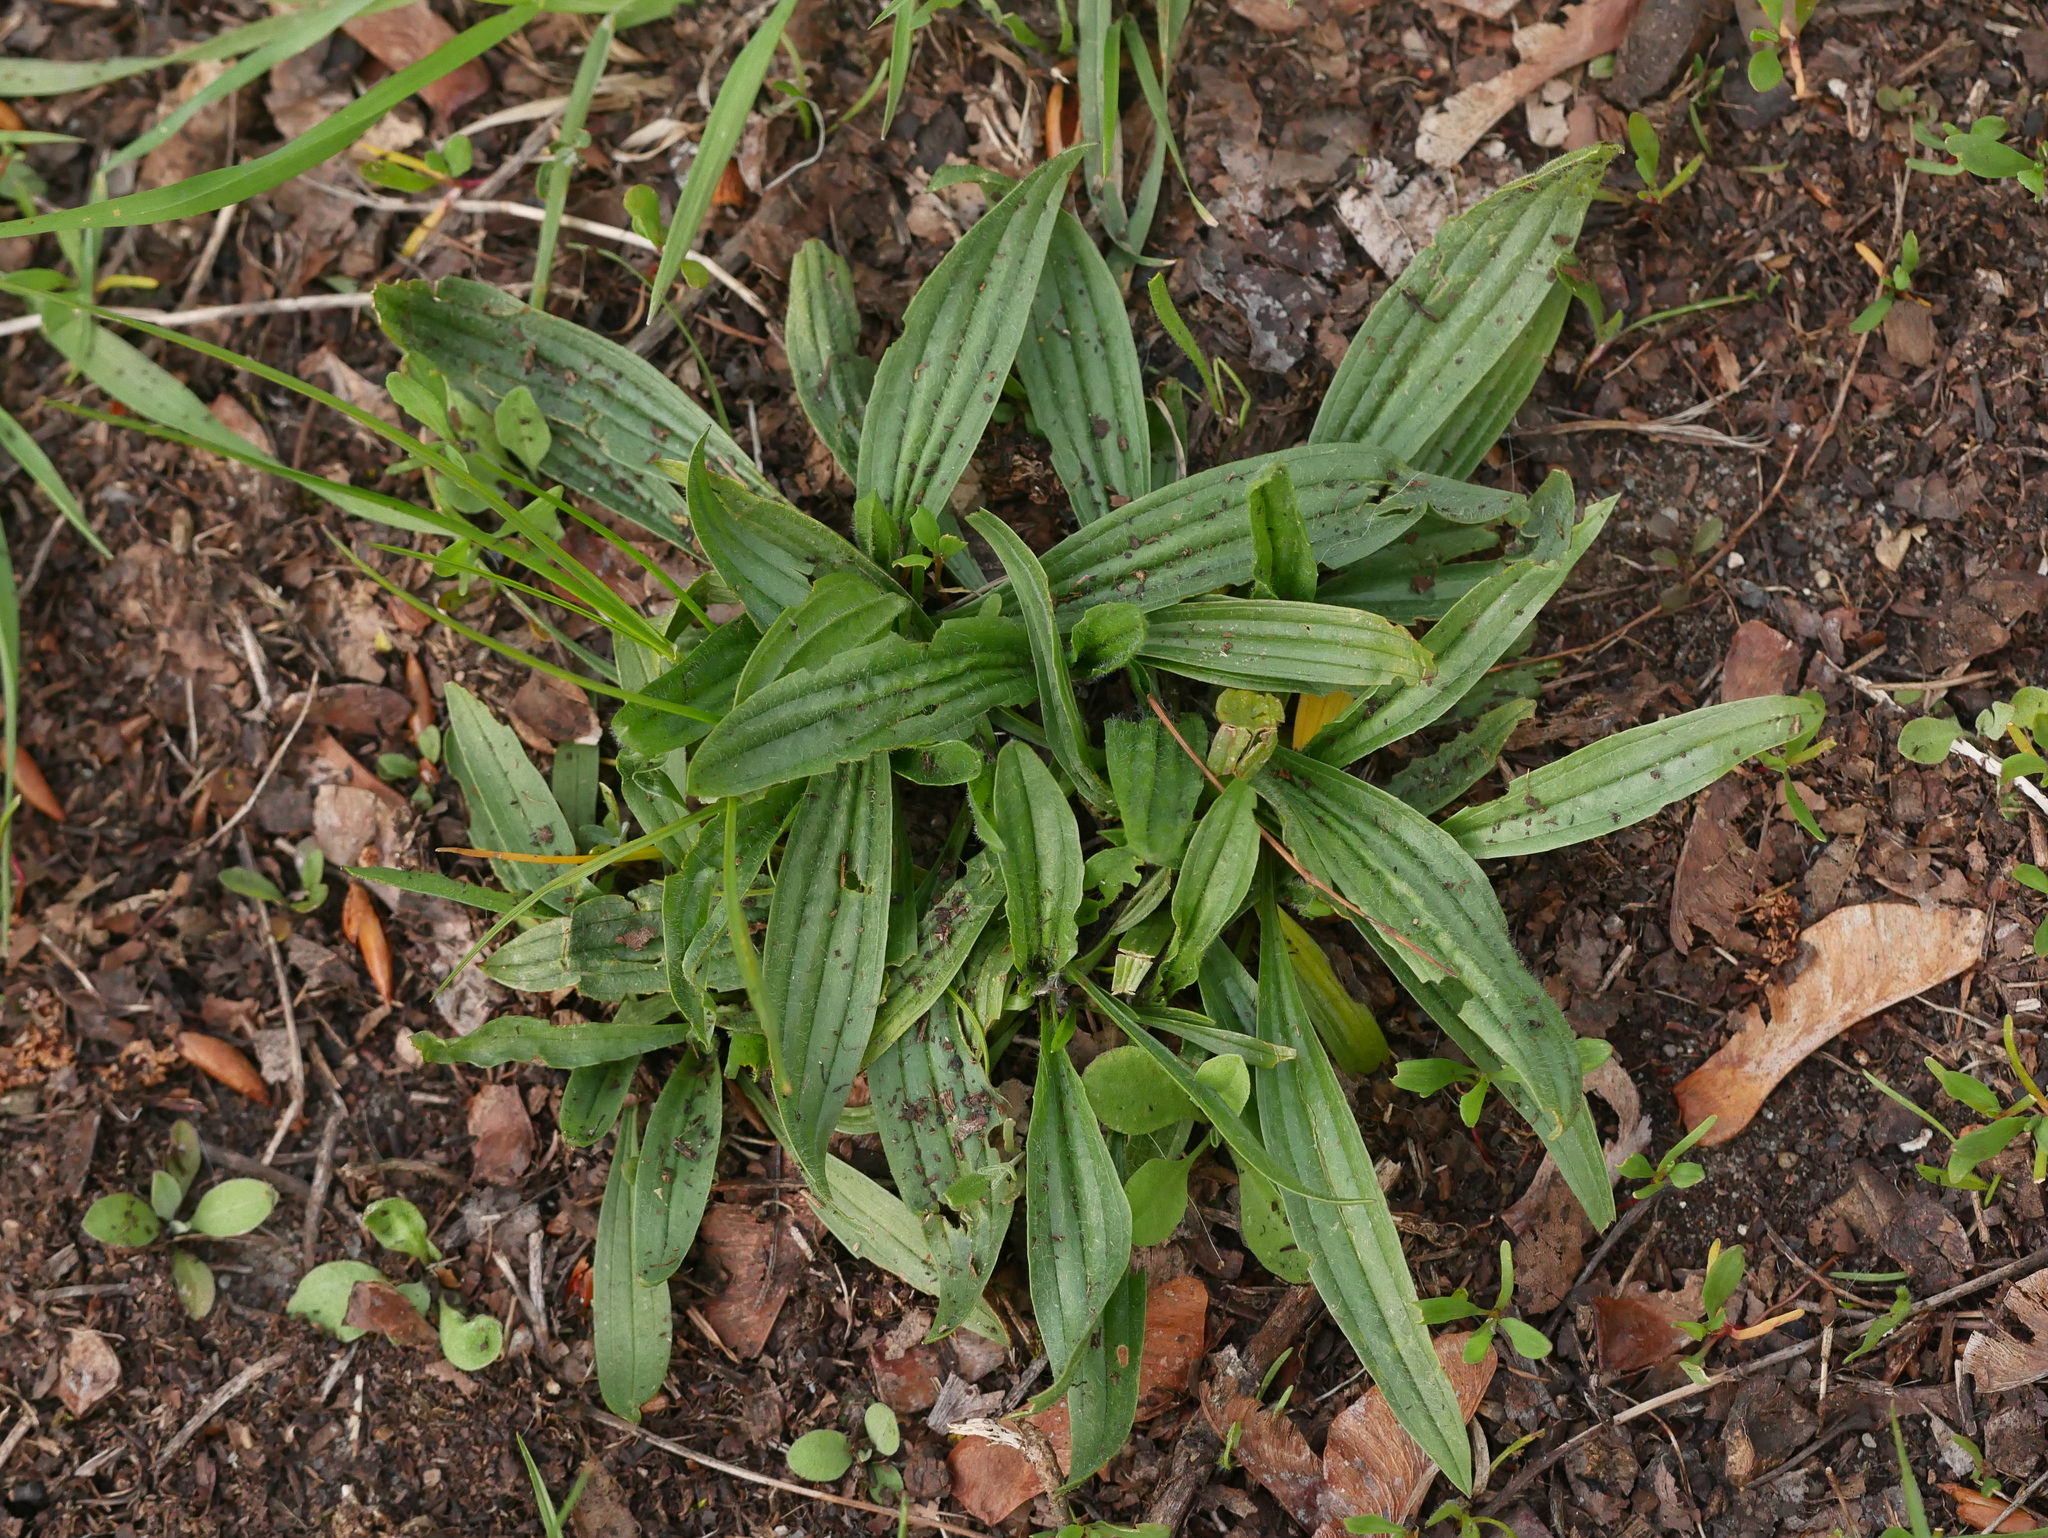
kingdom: Plantae
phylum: Tracheophyta
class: Magnoliopsida
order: Lamiales
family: Plantaginaceae
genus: Plantago
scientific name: Plantago lanceolata
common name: Ribwort plantain
